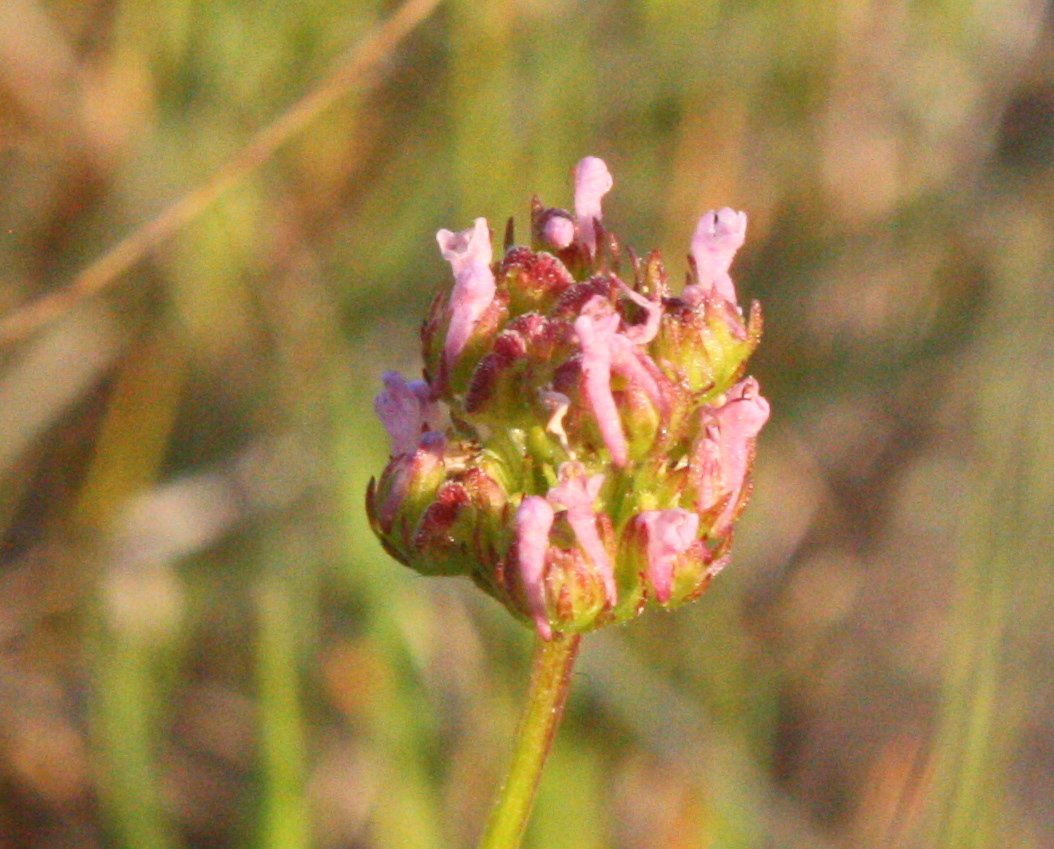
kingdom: Plantae
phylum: Tracheophyta
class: Magnoliopsida
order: Dipsacales
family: Caprifoliaceae
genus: Plectritis
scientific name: Plectritis ciliosa
